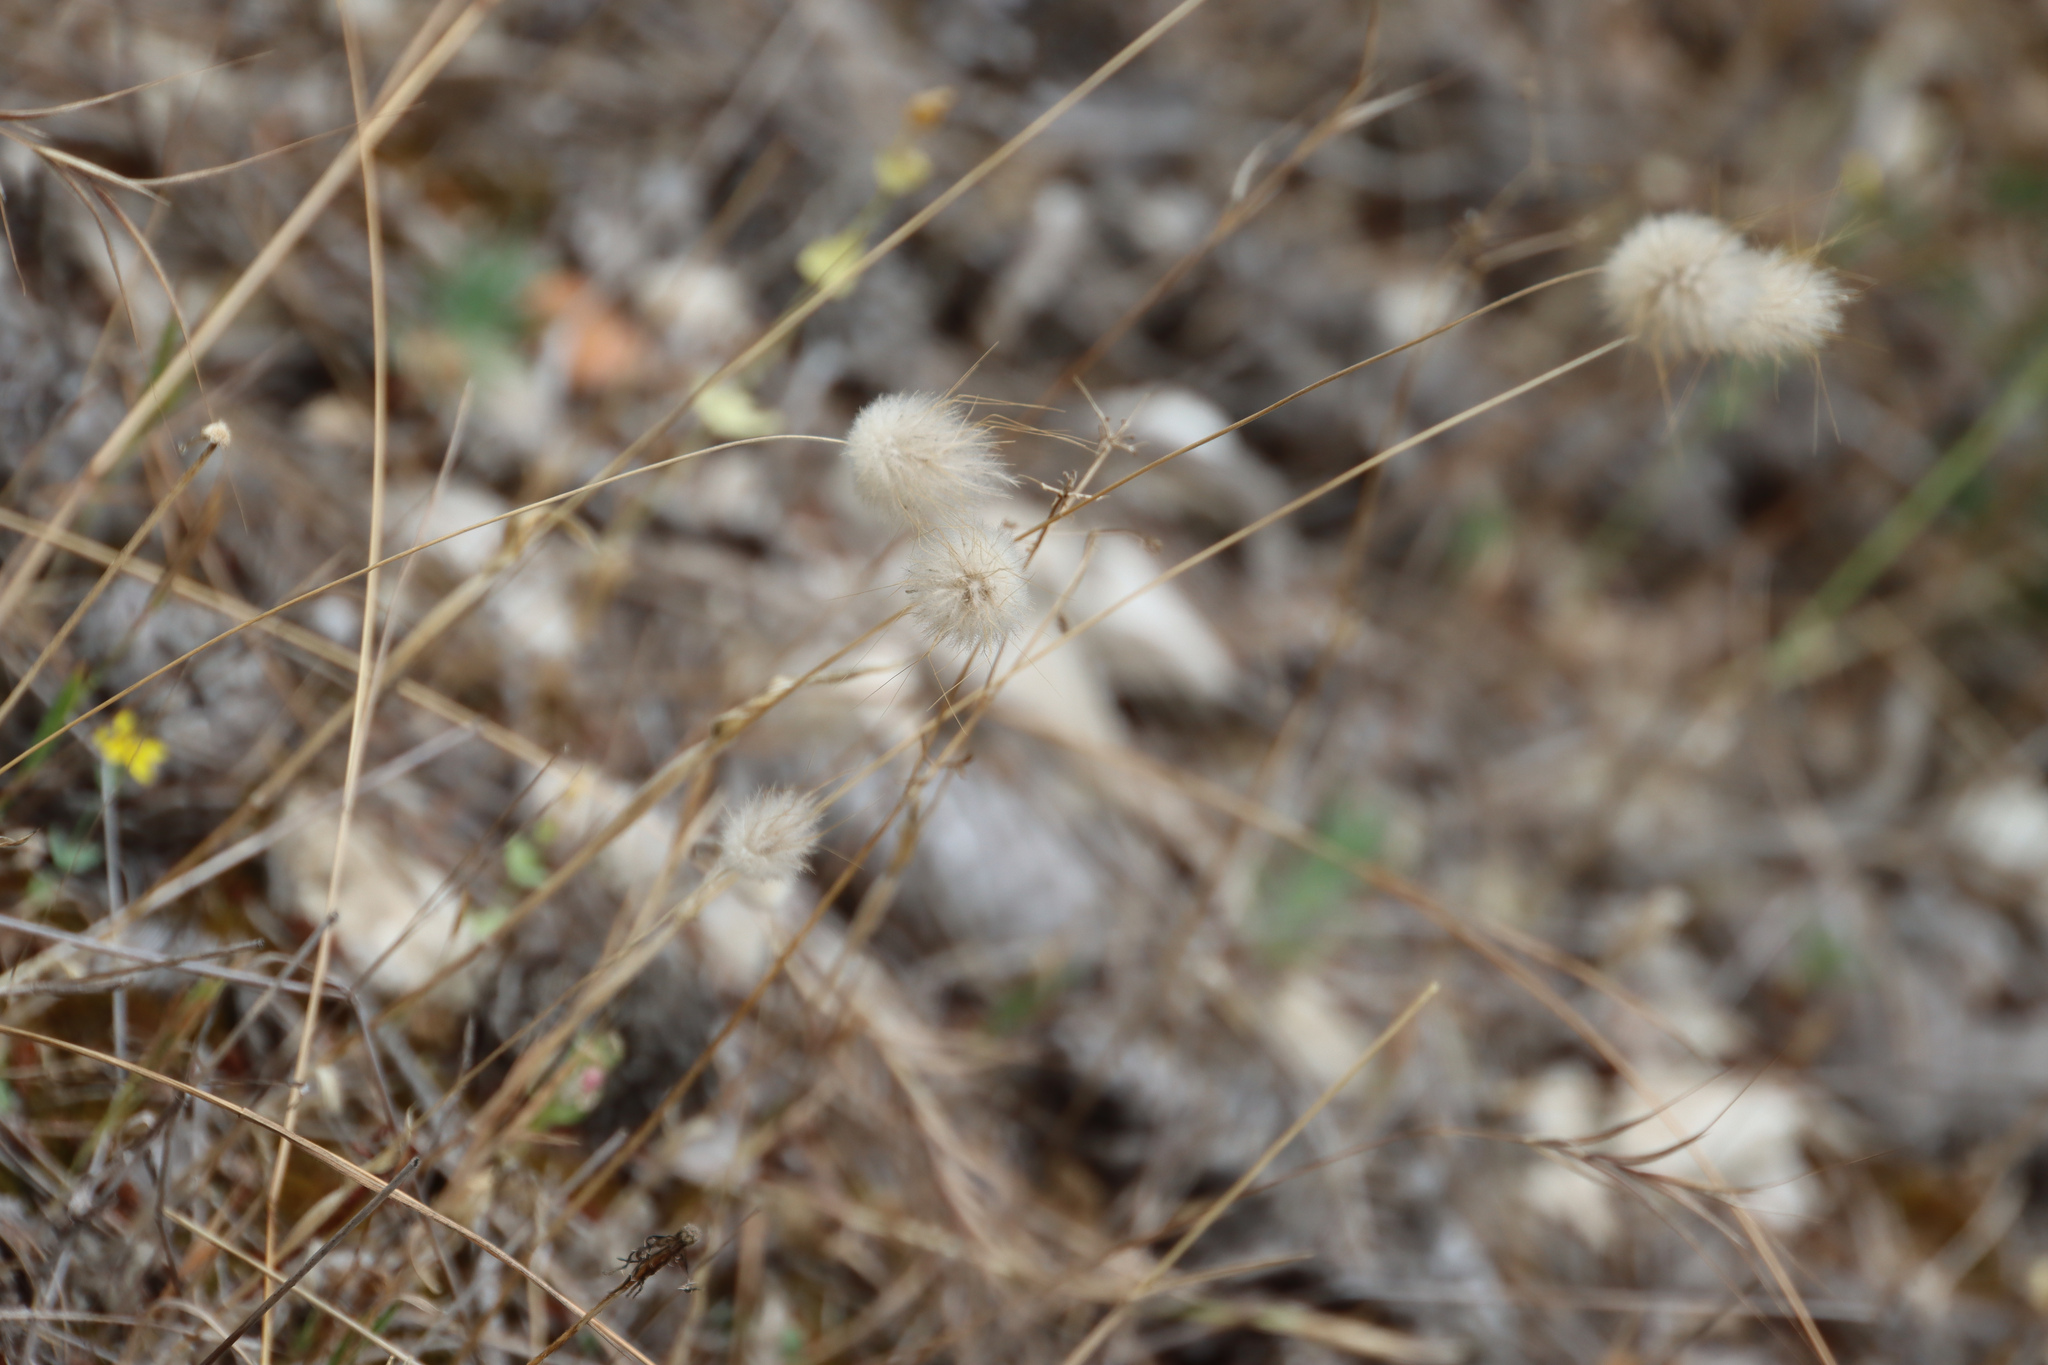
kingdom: Plantae
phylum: Tracheophyta
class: Liliopsida
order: Poales
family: Poaceae
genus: Lagurus
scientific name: Lagurus ovatus
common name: Hare's-tail
